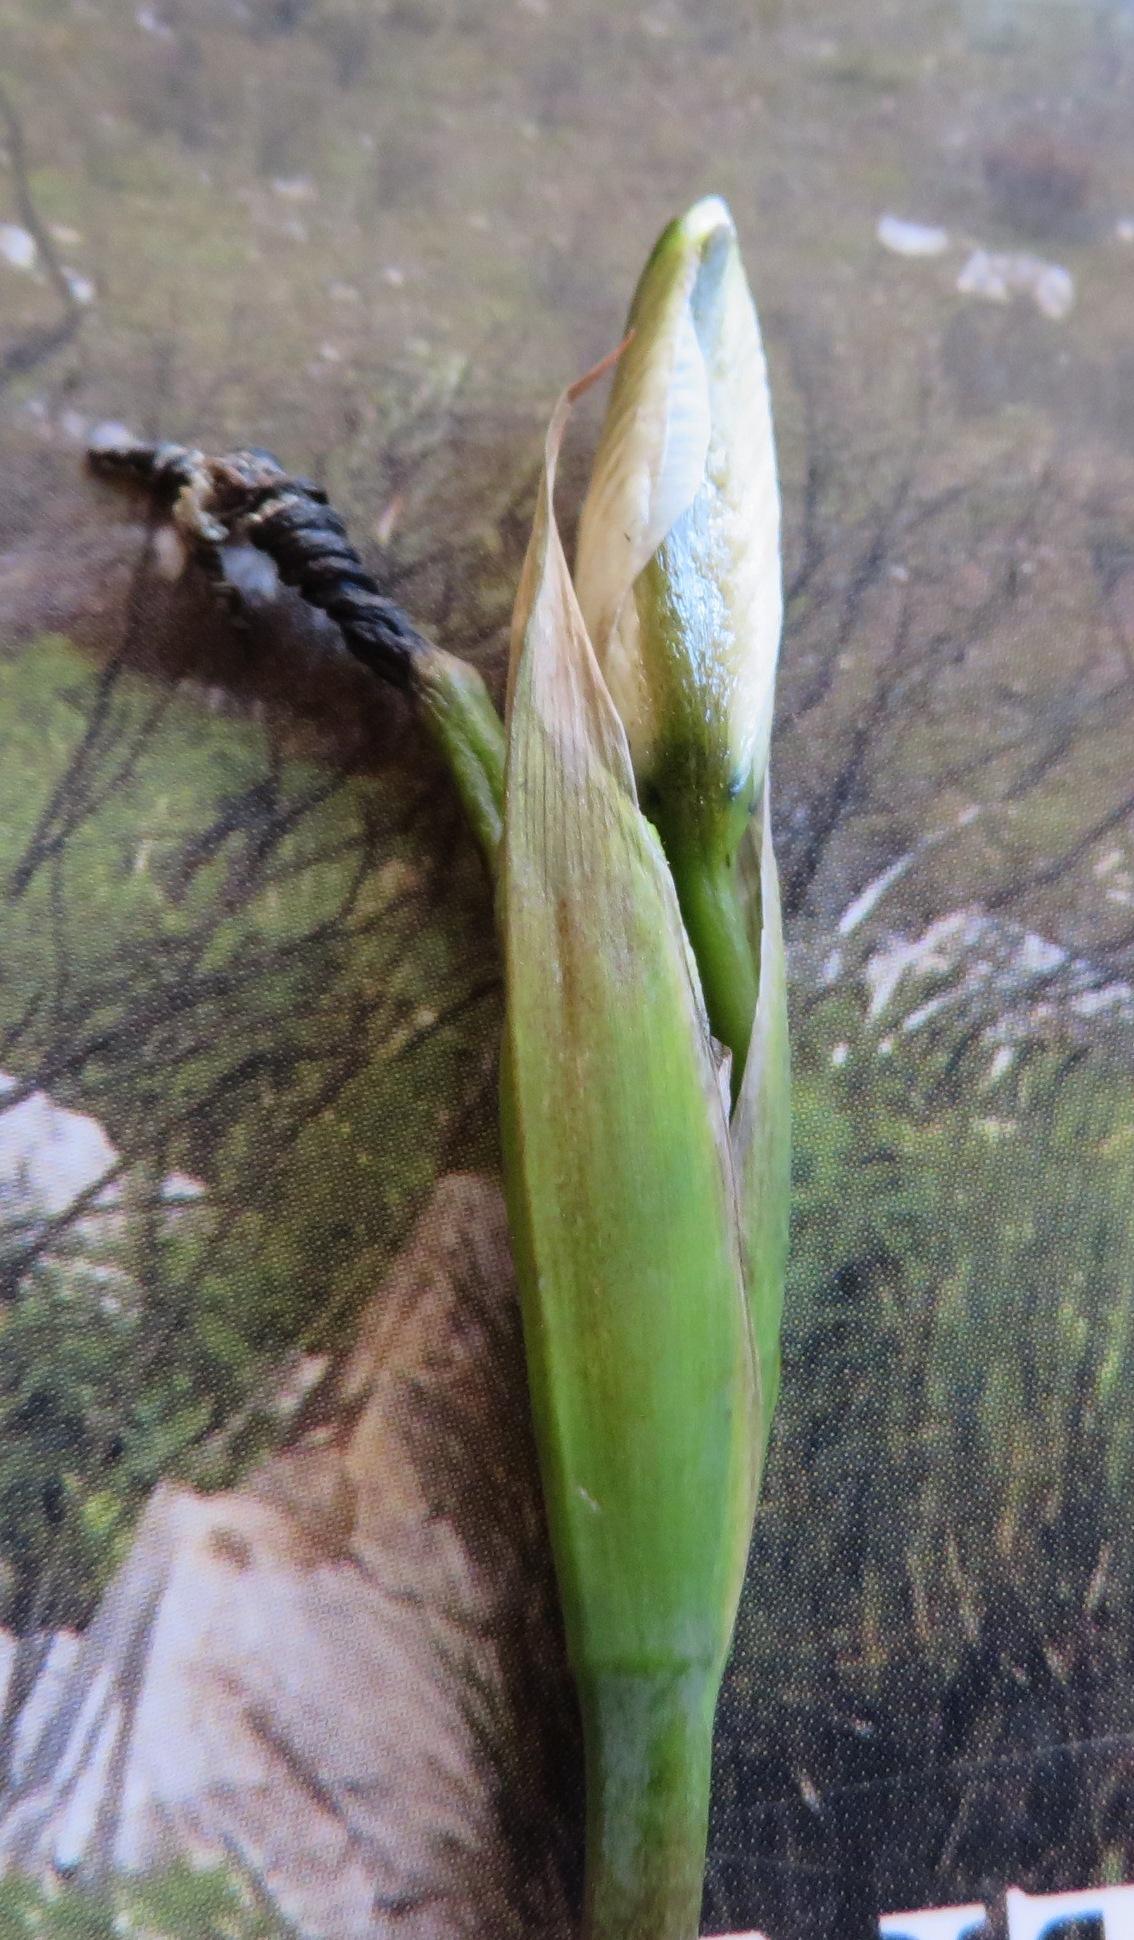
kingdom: Plantae
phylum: Tracheophyta
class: Liliopsida
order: Asparagales
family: Iridaceae
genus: Aristea
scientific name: Aristea cantharophila
